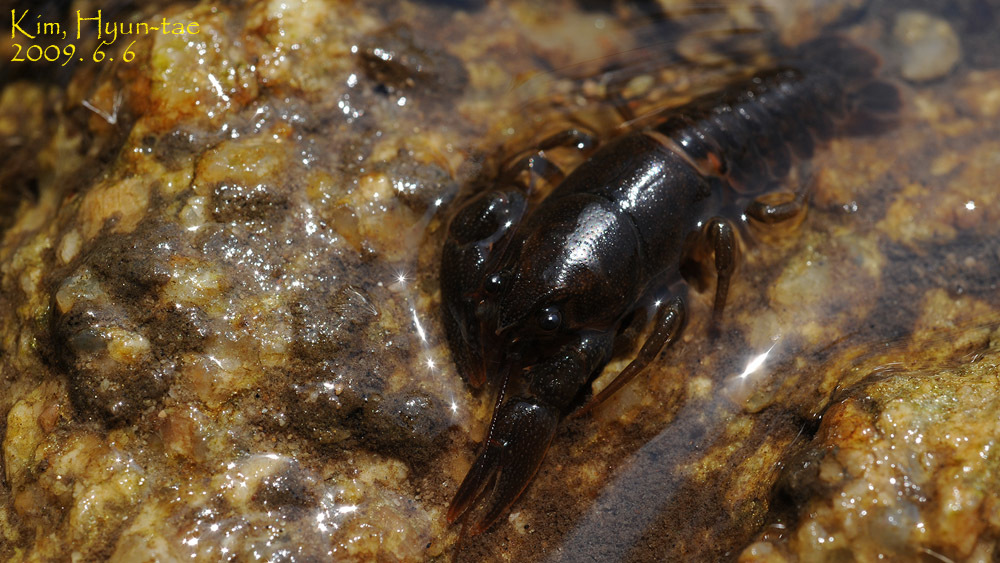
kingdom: Animalia
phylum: Arthropoda
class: Malacostraca
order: Decapoda
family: Cambaroididae
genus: Cambaroides
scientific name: Cambaroides similis
